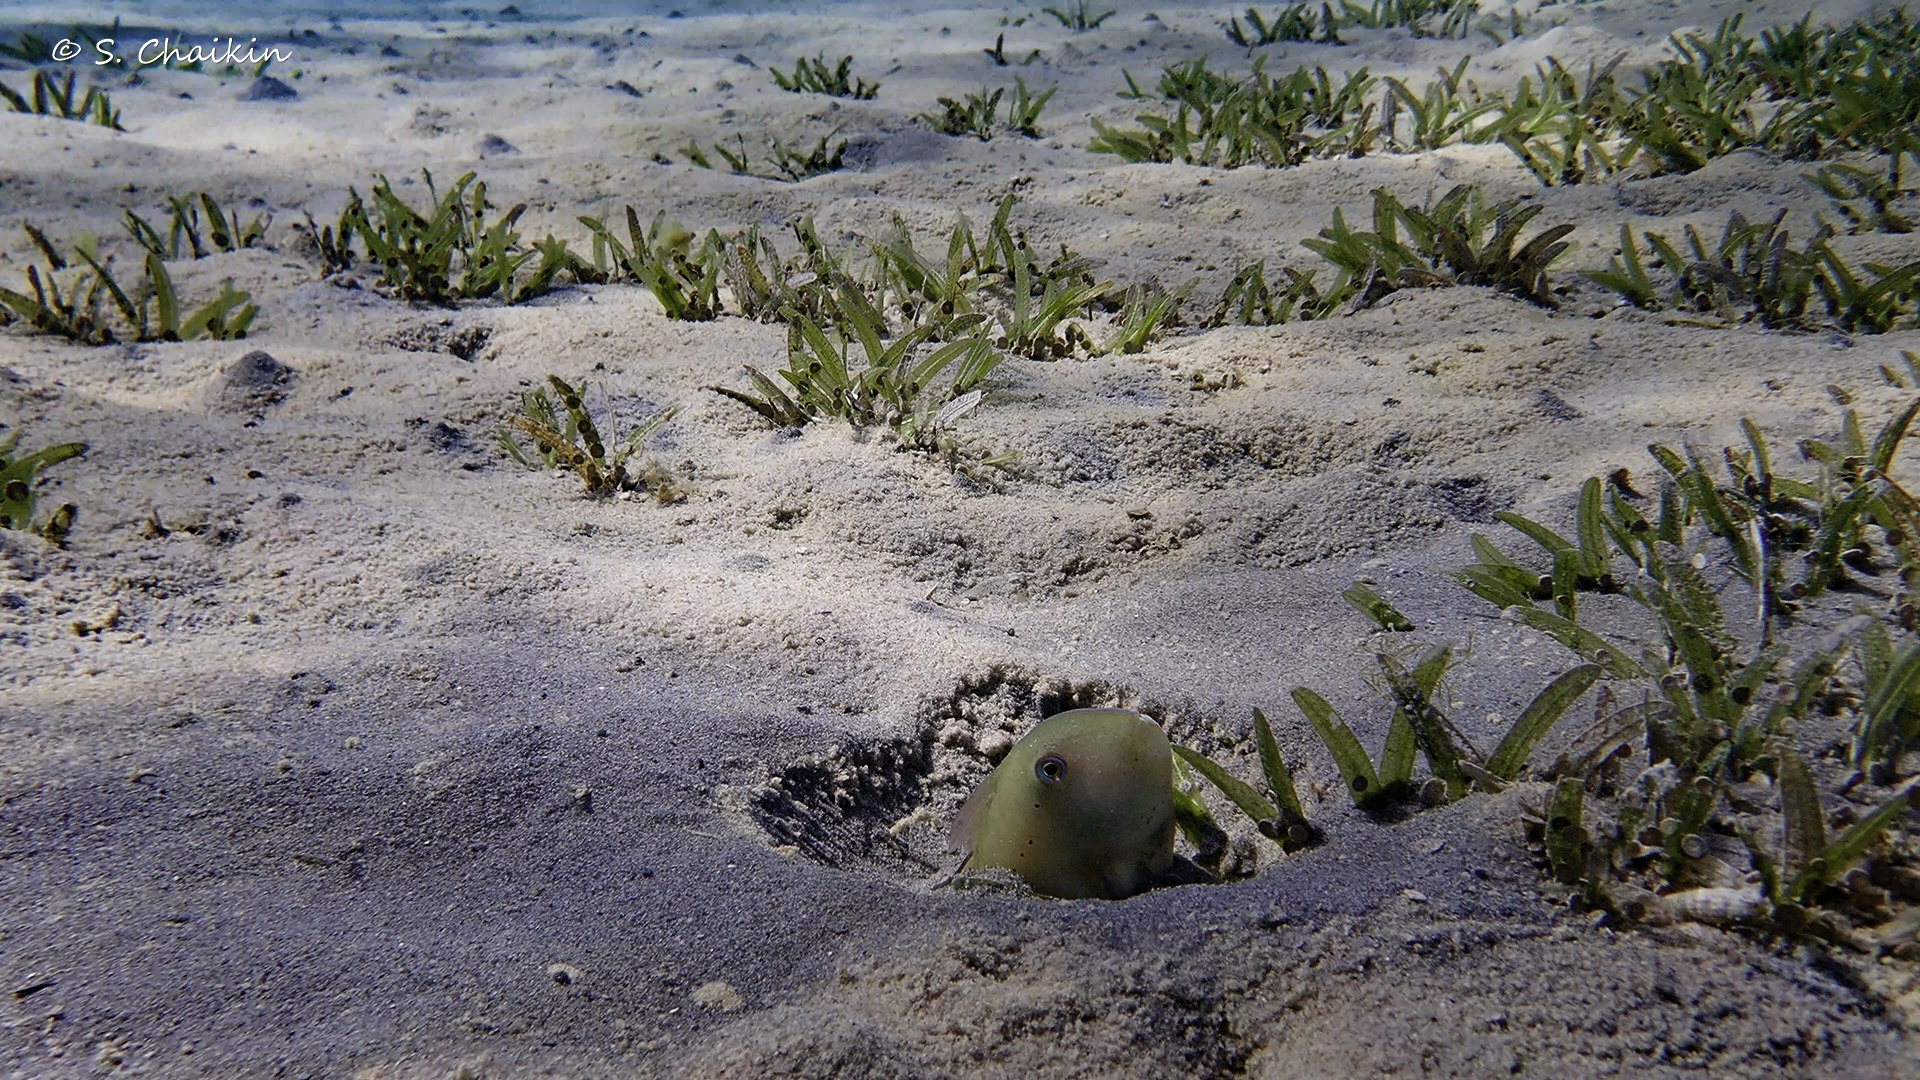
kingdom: Animalia
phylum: Chordata
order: Perciformes
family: Labridae
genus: Iniistius
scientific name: Iniistius pentadactylus
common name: Fivefinger razorfish
